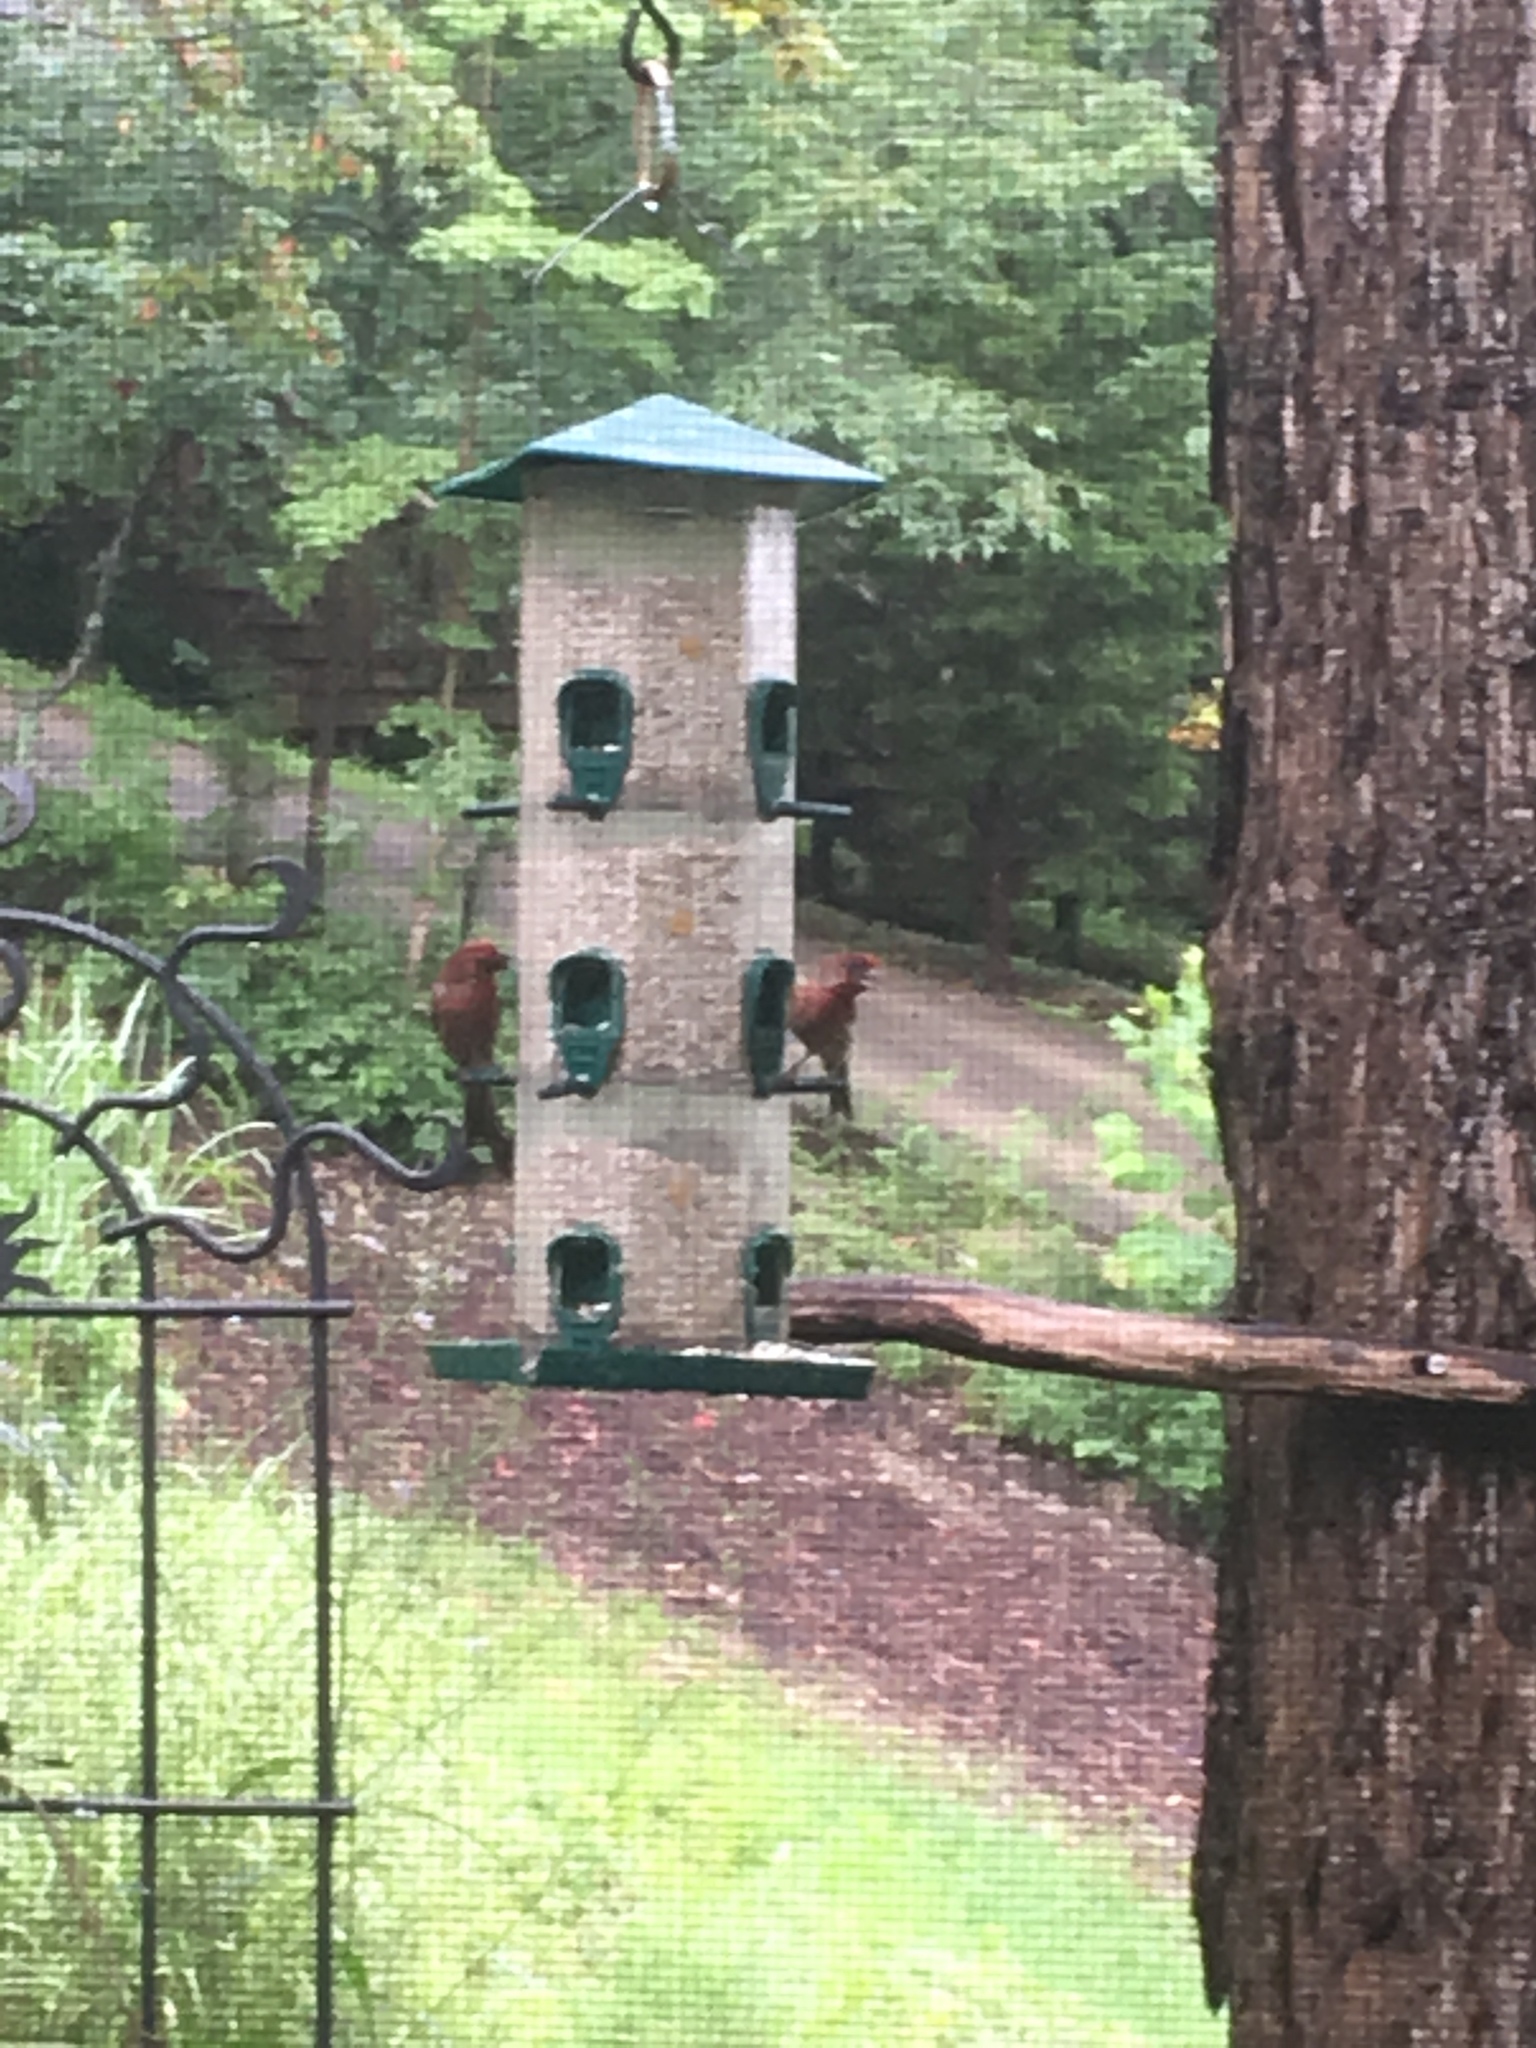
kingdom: Animalia
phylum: Chordata
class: Aves
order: Passeriformes
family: Fringillidae
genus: Haemorhous
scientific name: Haemorhous mexicanus
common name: House finch
